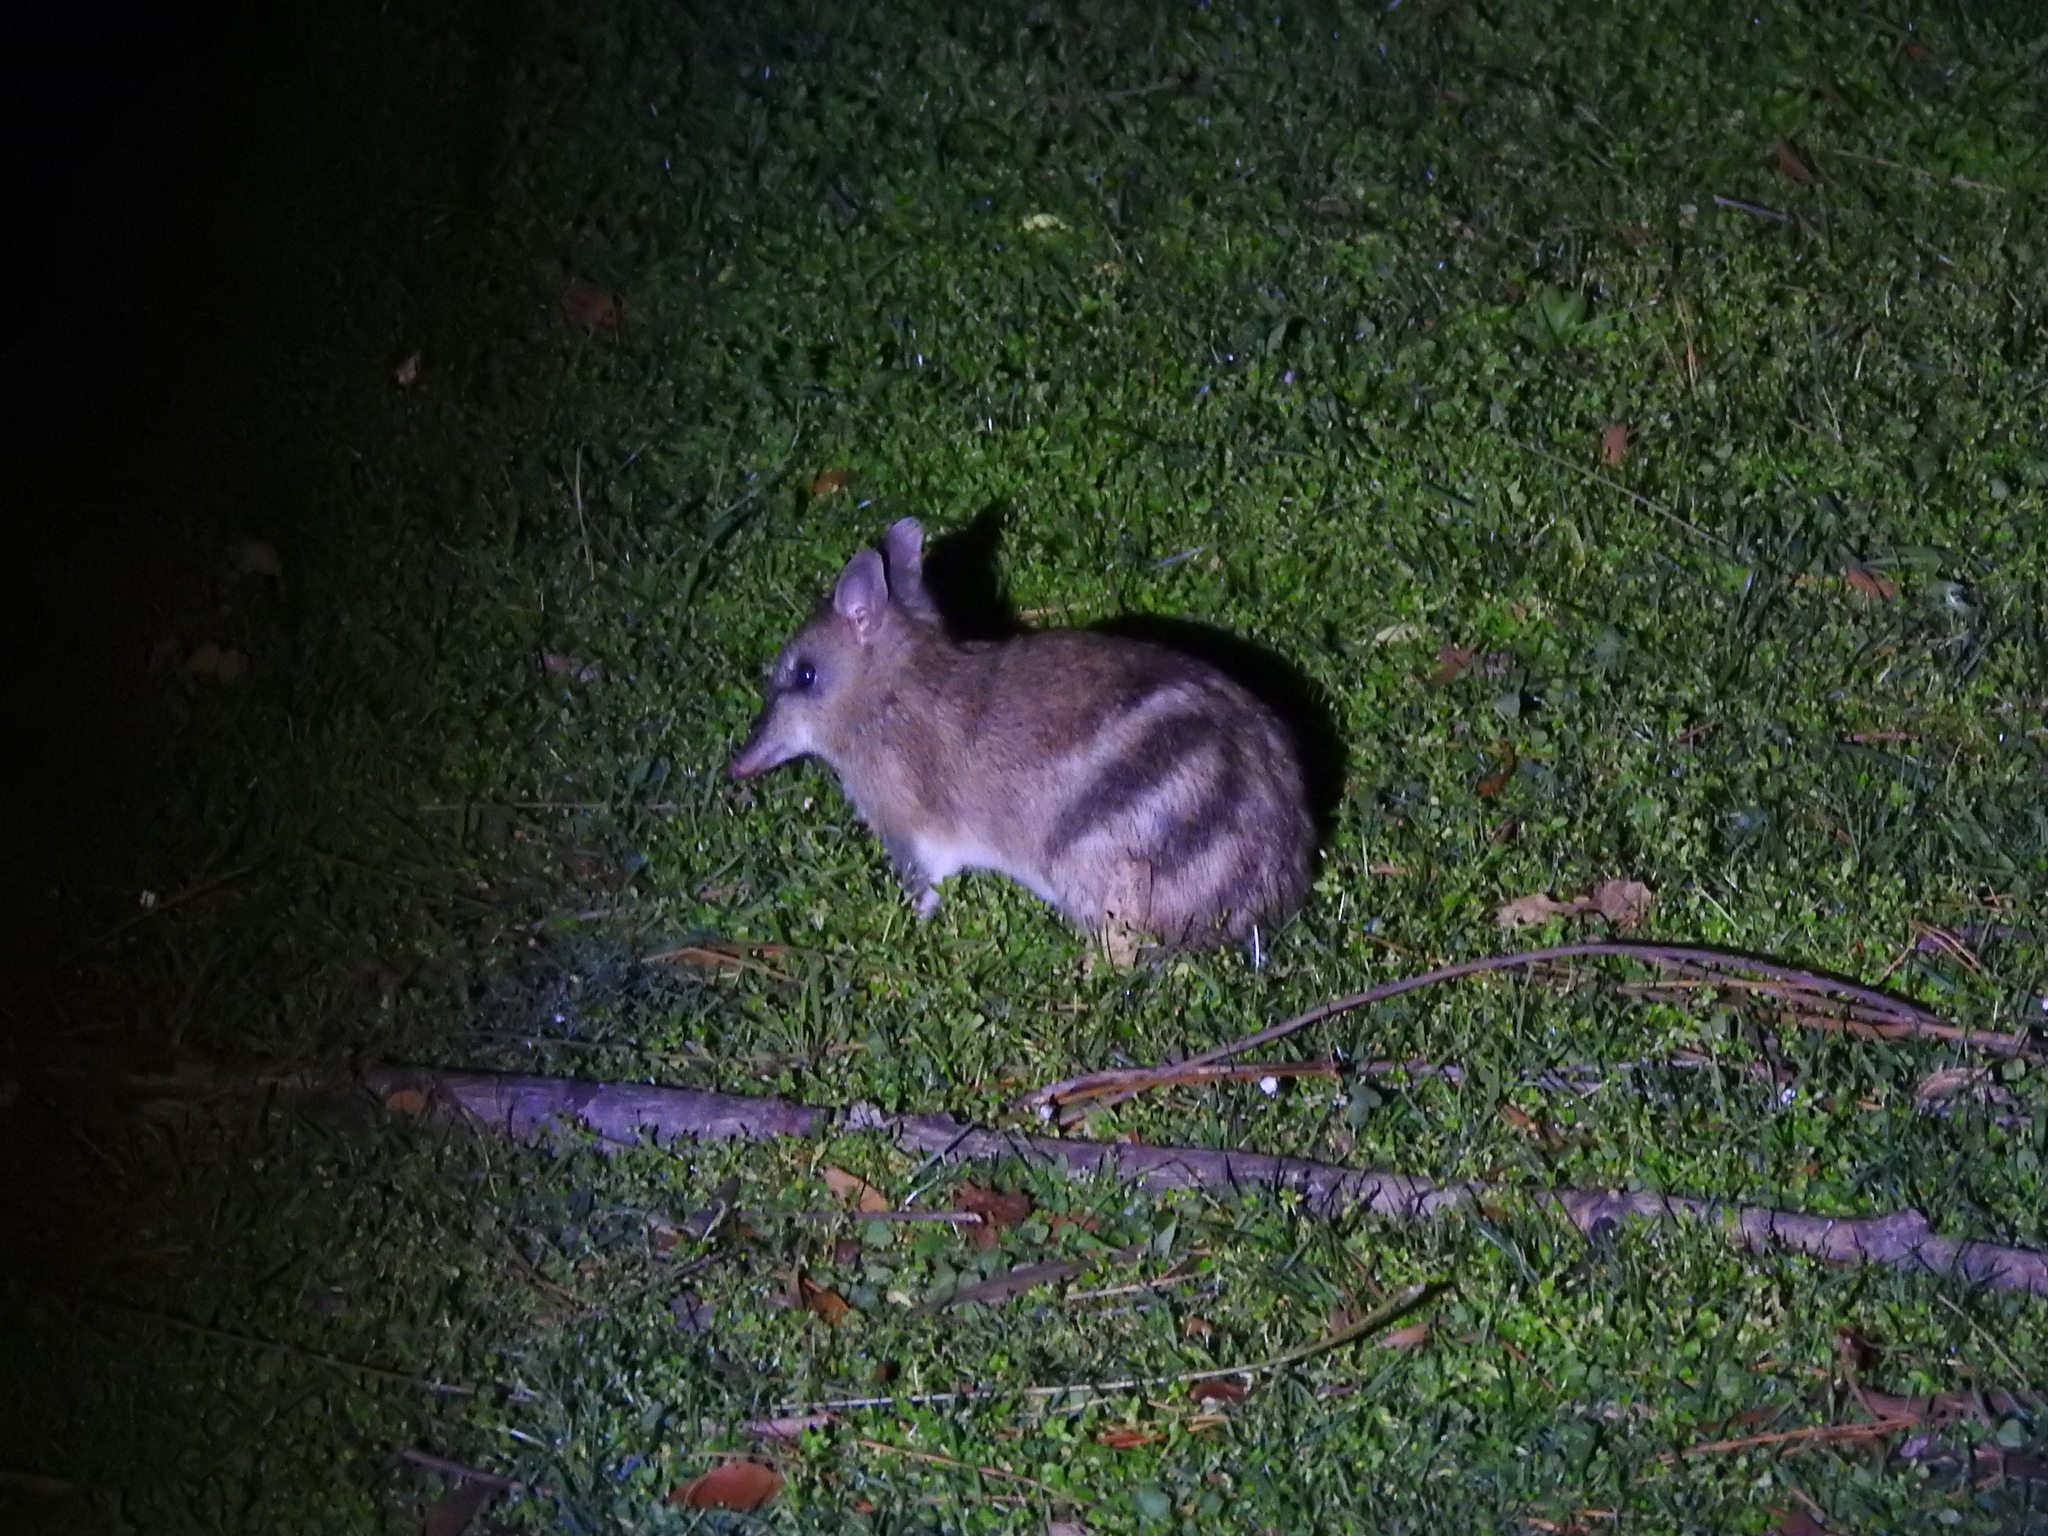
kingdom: Animalia
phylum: Chordata
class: Mammalia
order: Peramelemorphia
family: Peramelidae
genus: Perameles
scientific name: Perameles gunnii
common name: Eastern barred bandicoot
